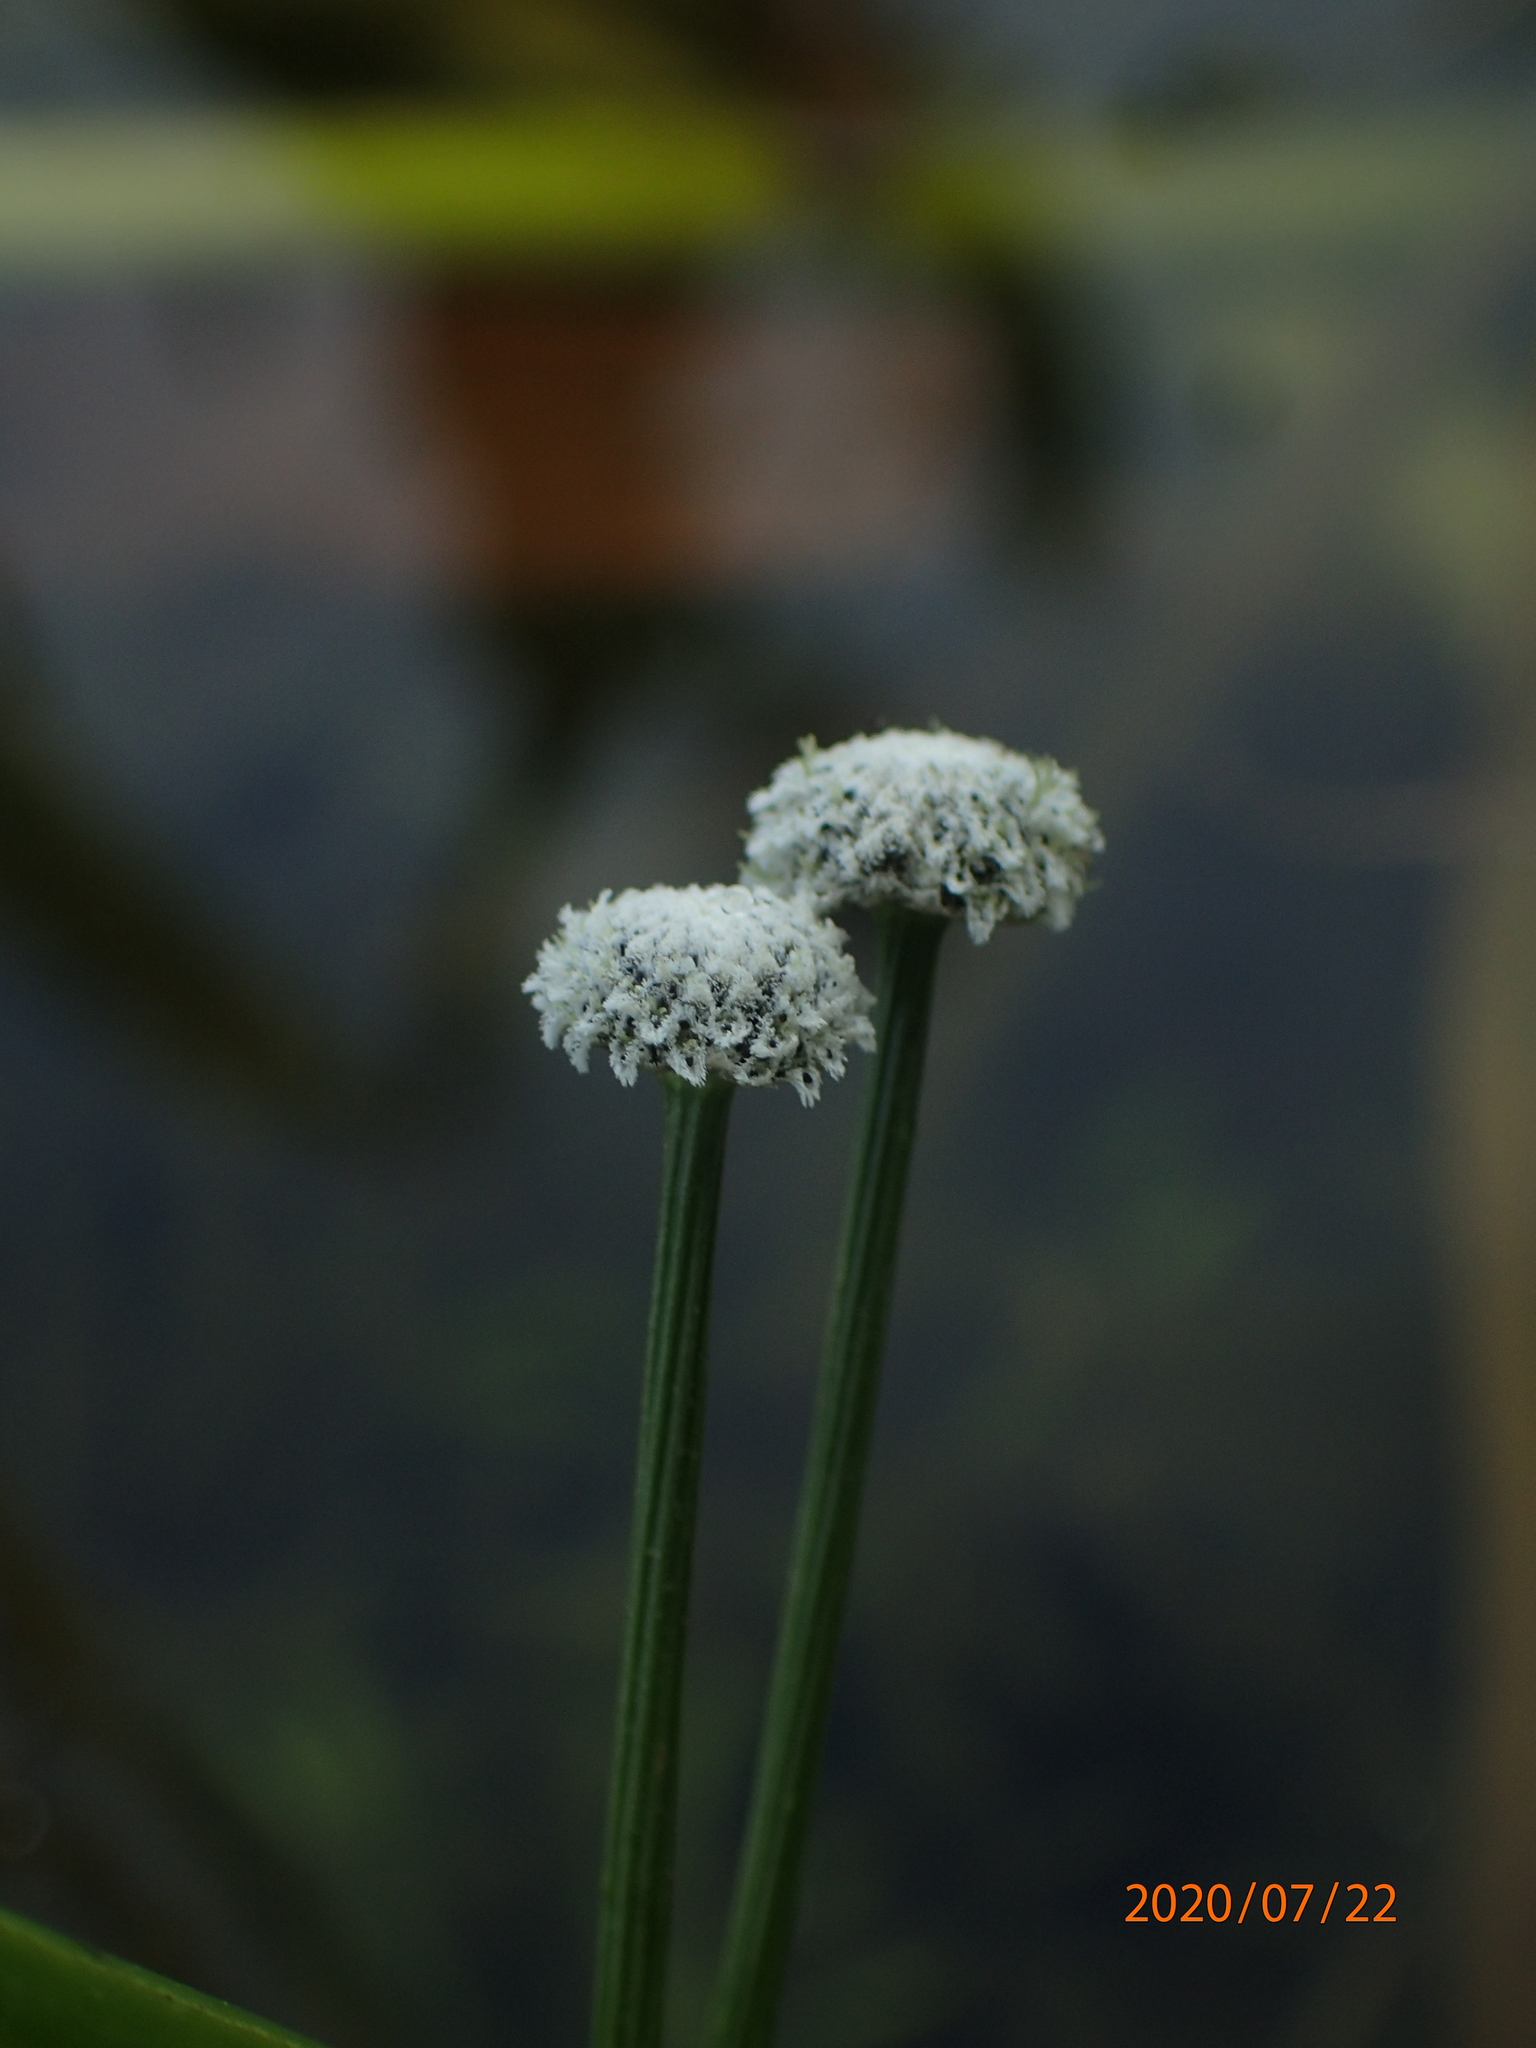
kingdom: Plantae
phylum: Tracheophyta
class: Liliopsida
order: Poales
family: Eriocaulaceae
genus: Eriocaulon
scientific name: Eriocaulon aquaticum
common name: Pipewort
